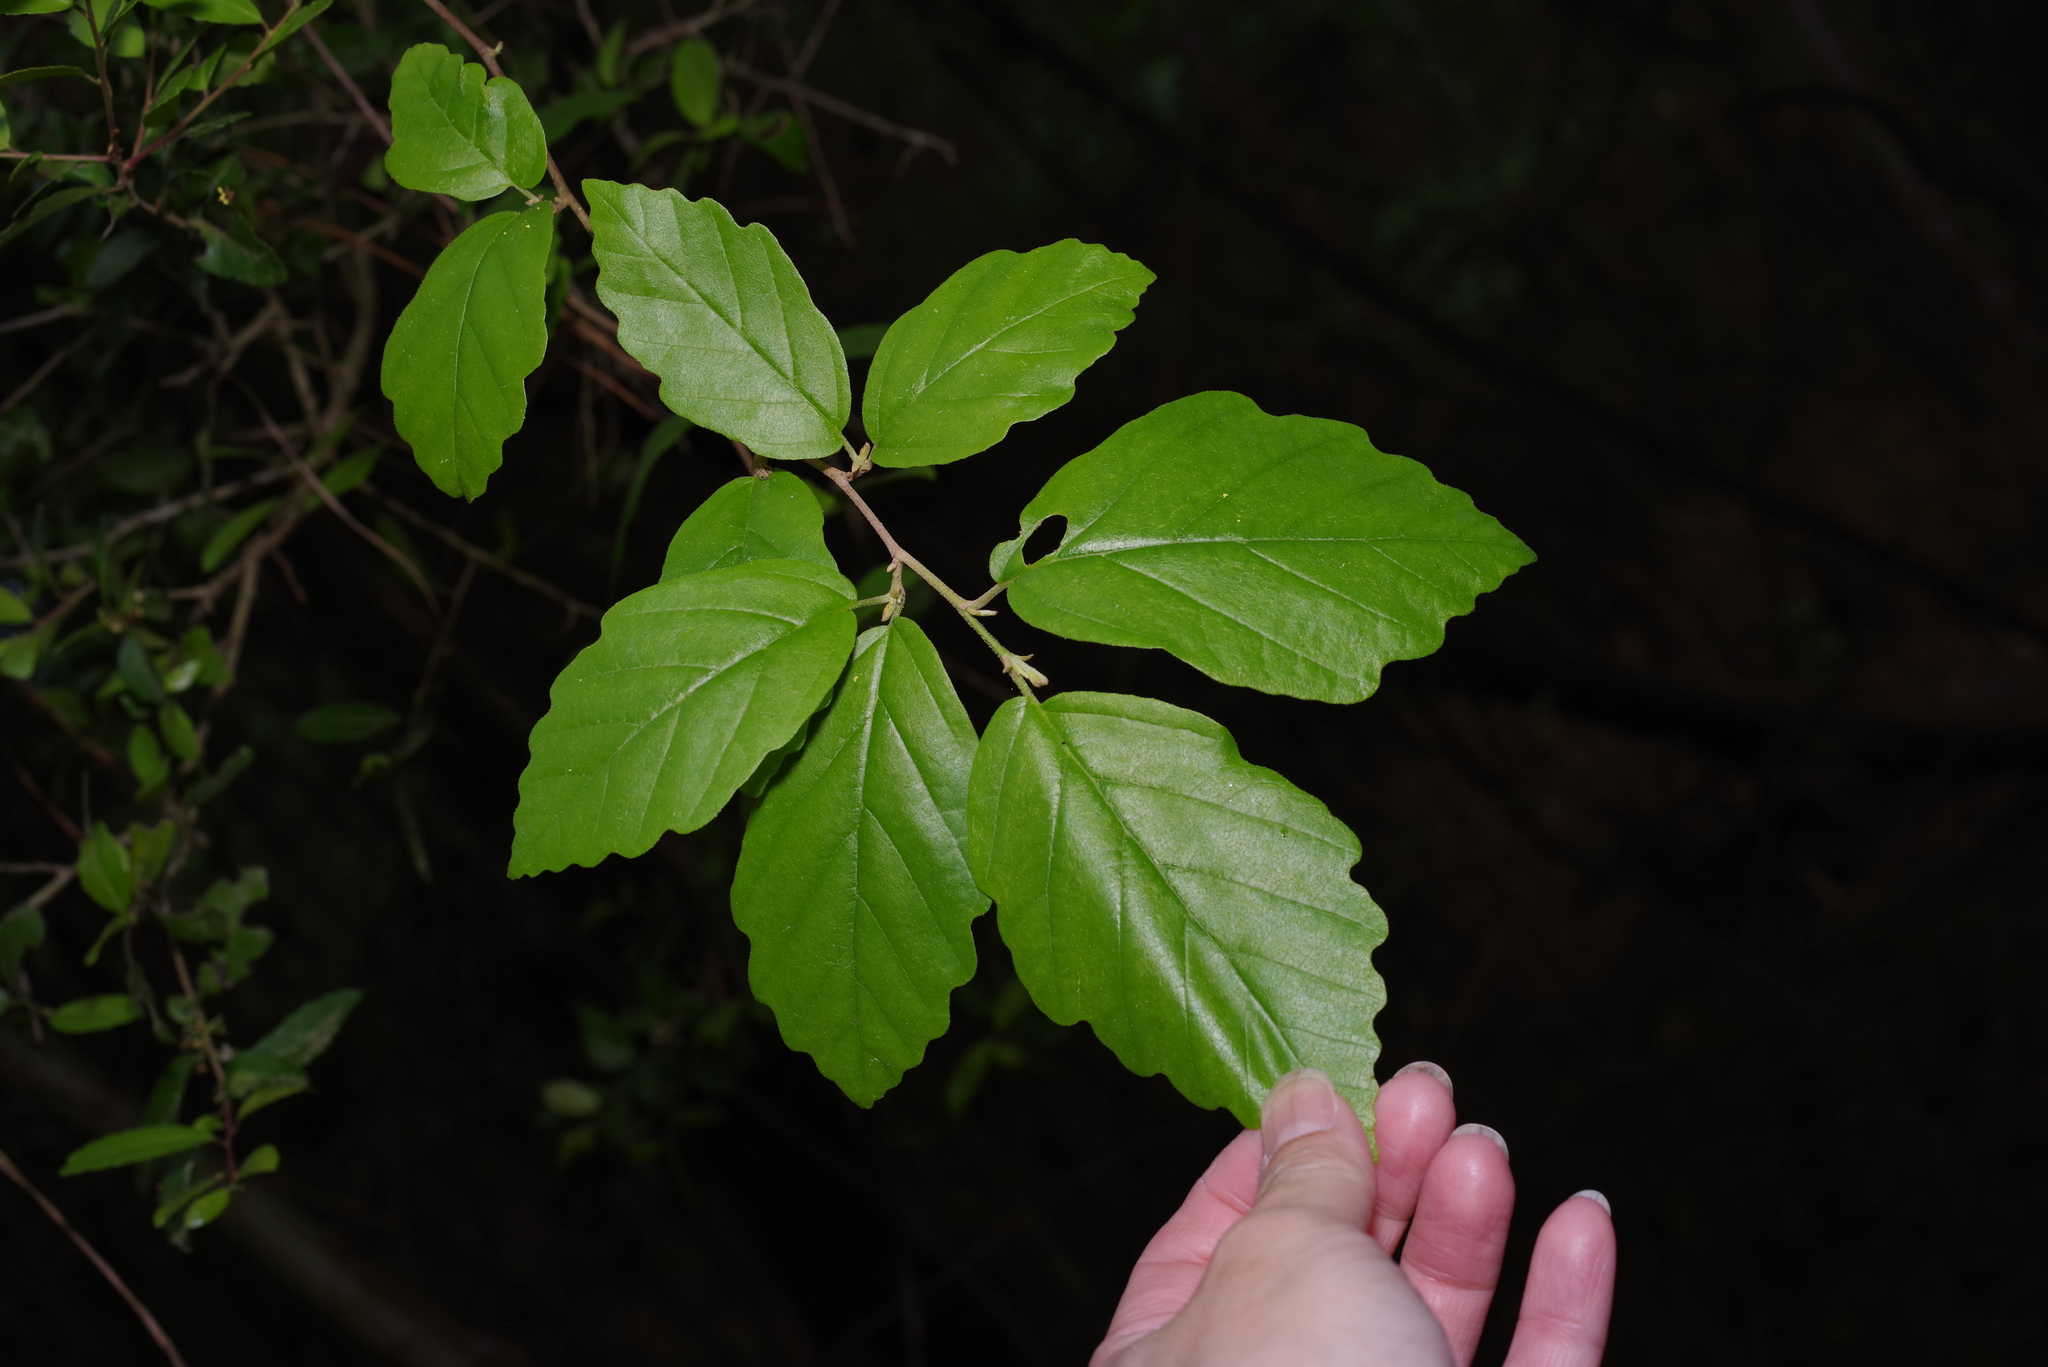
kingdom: Plantae
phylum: Tracheophyta
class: Magnoliopsida
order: Saxifragales
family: Hamamelidaceae
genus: Hamamelis
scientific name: Hamamelis virginiana
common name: Witch-hazel
